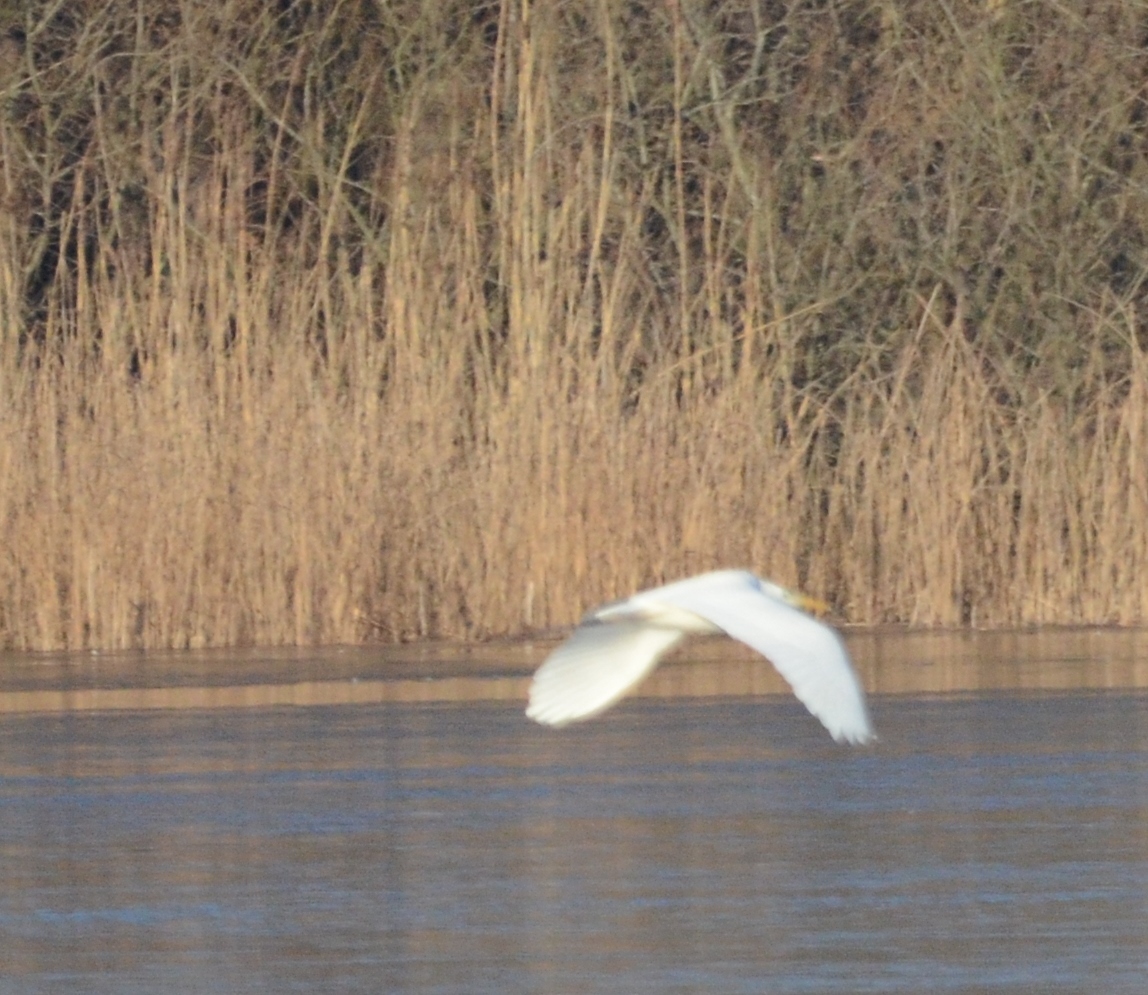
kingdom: Animalia
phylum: Chordata
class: Aves
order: Pelecaniformes
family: Ardeidae
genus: Ardea
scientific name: Ardea alba
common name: Great egret
